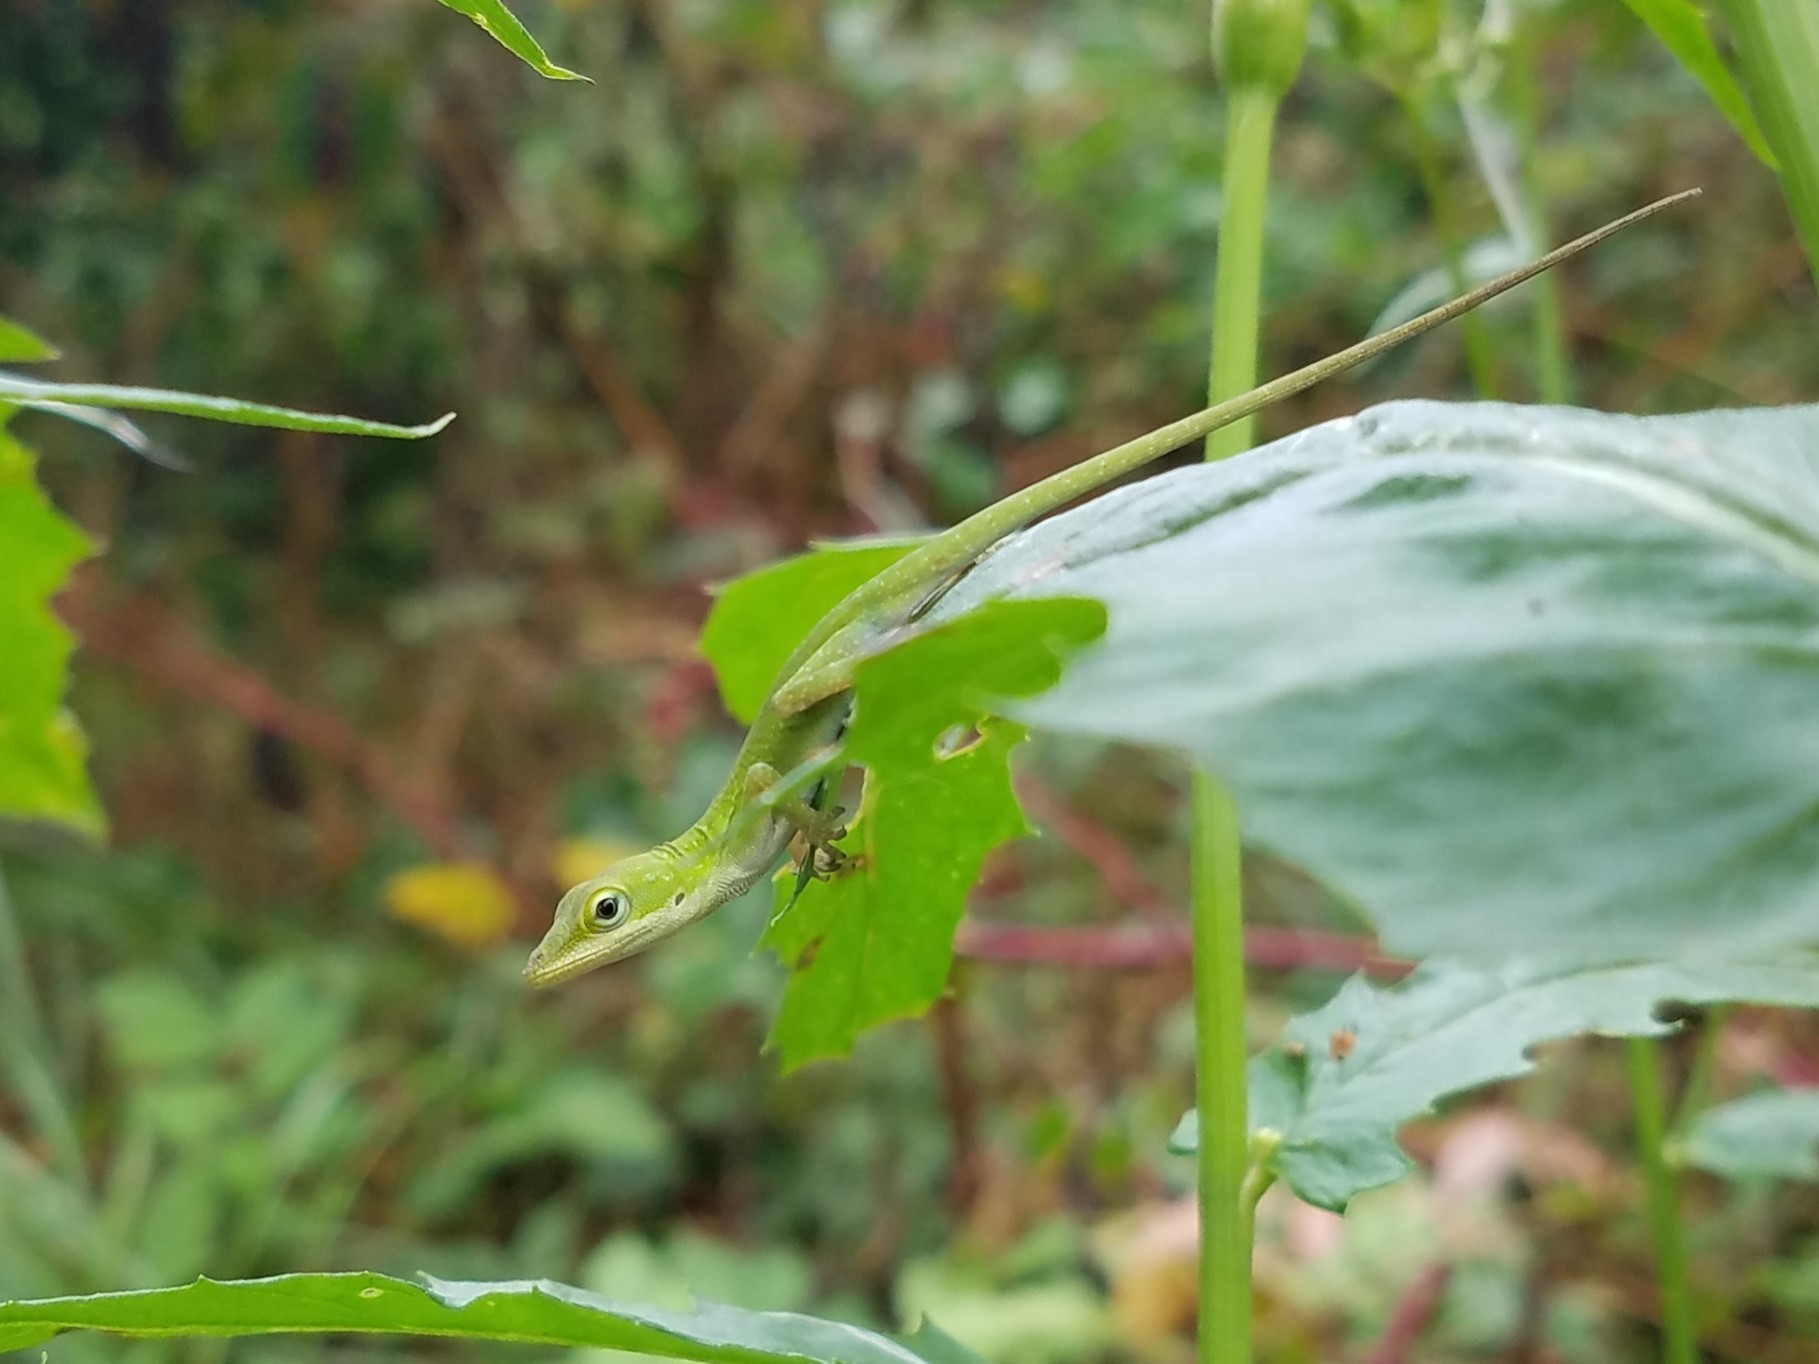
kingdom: Animalia
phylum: Chordata
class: Squamata
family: Dactyloidae
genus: Anolis
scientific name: Anolis carolinensis
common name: Green anole
